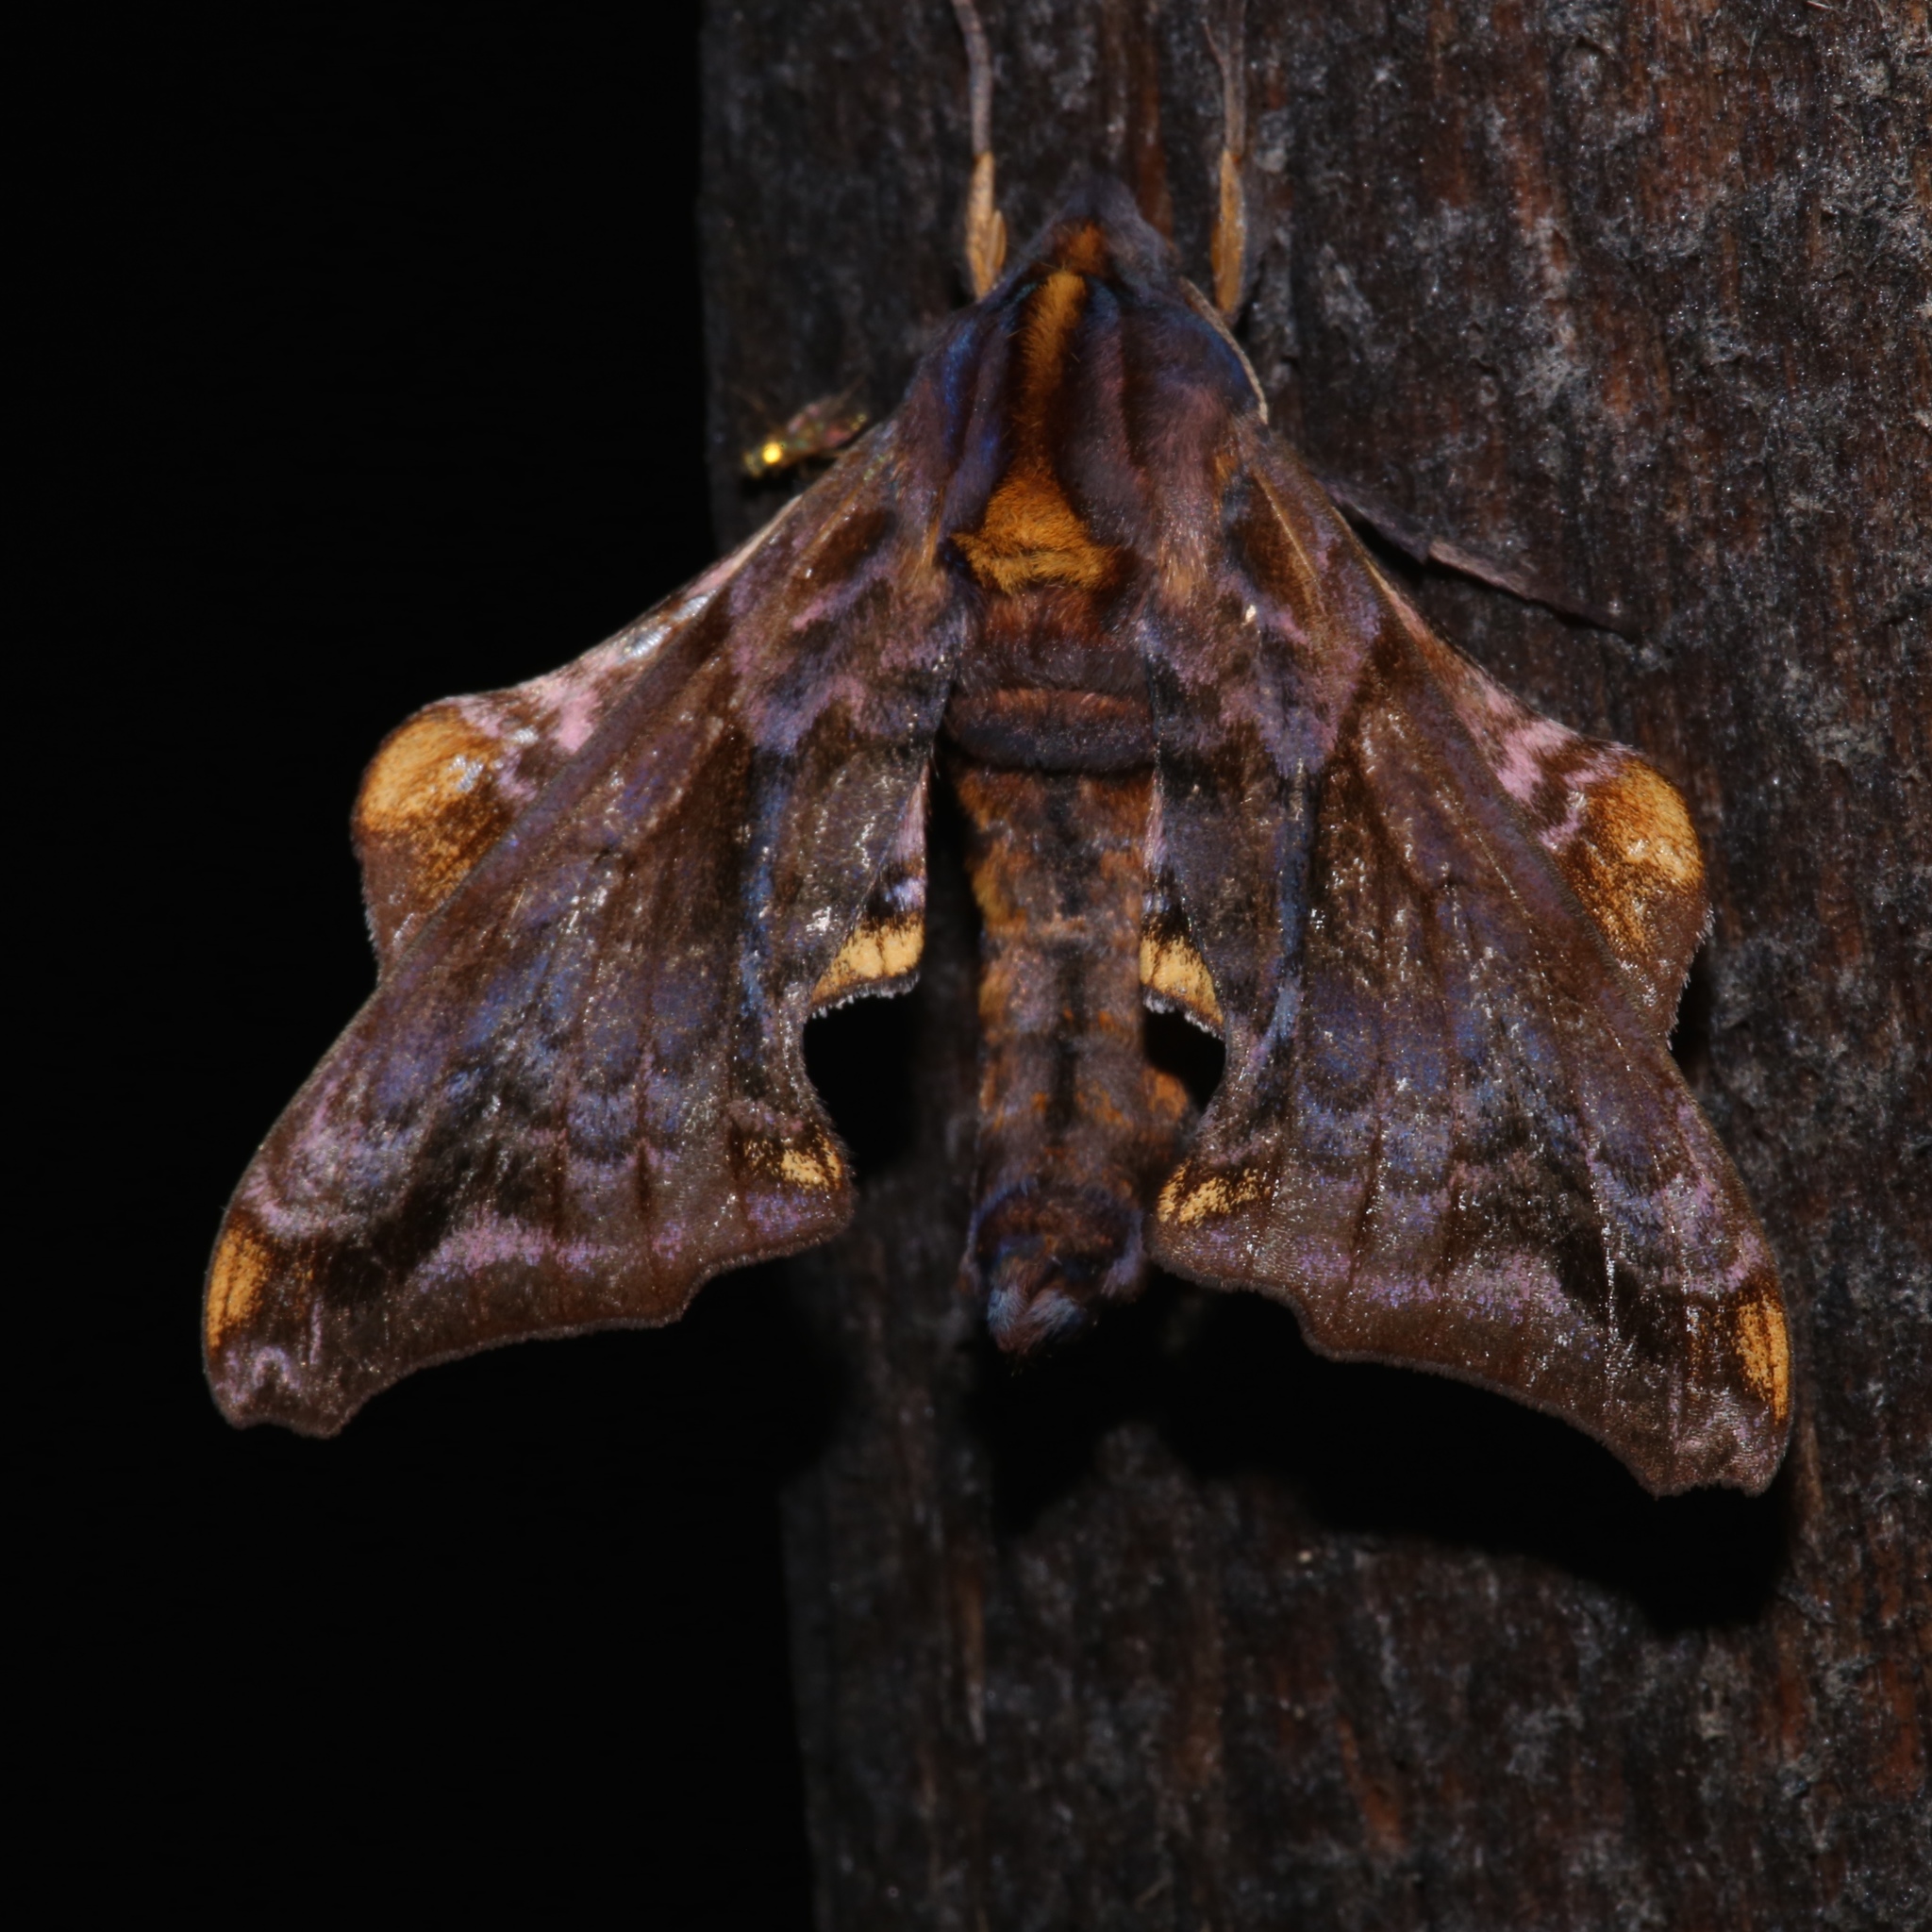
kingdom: Animalia
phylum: Arthropoda
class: Insecta
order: Lepidoptera
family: Sphingidae
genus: Paonias
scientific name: Paonias myops
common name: Small-eyed sphinx
